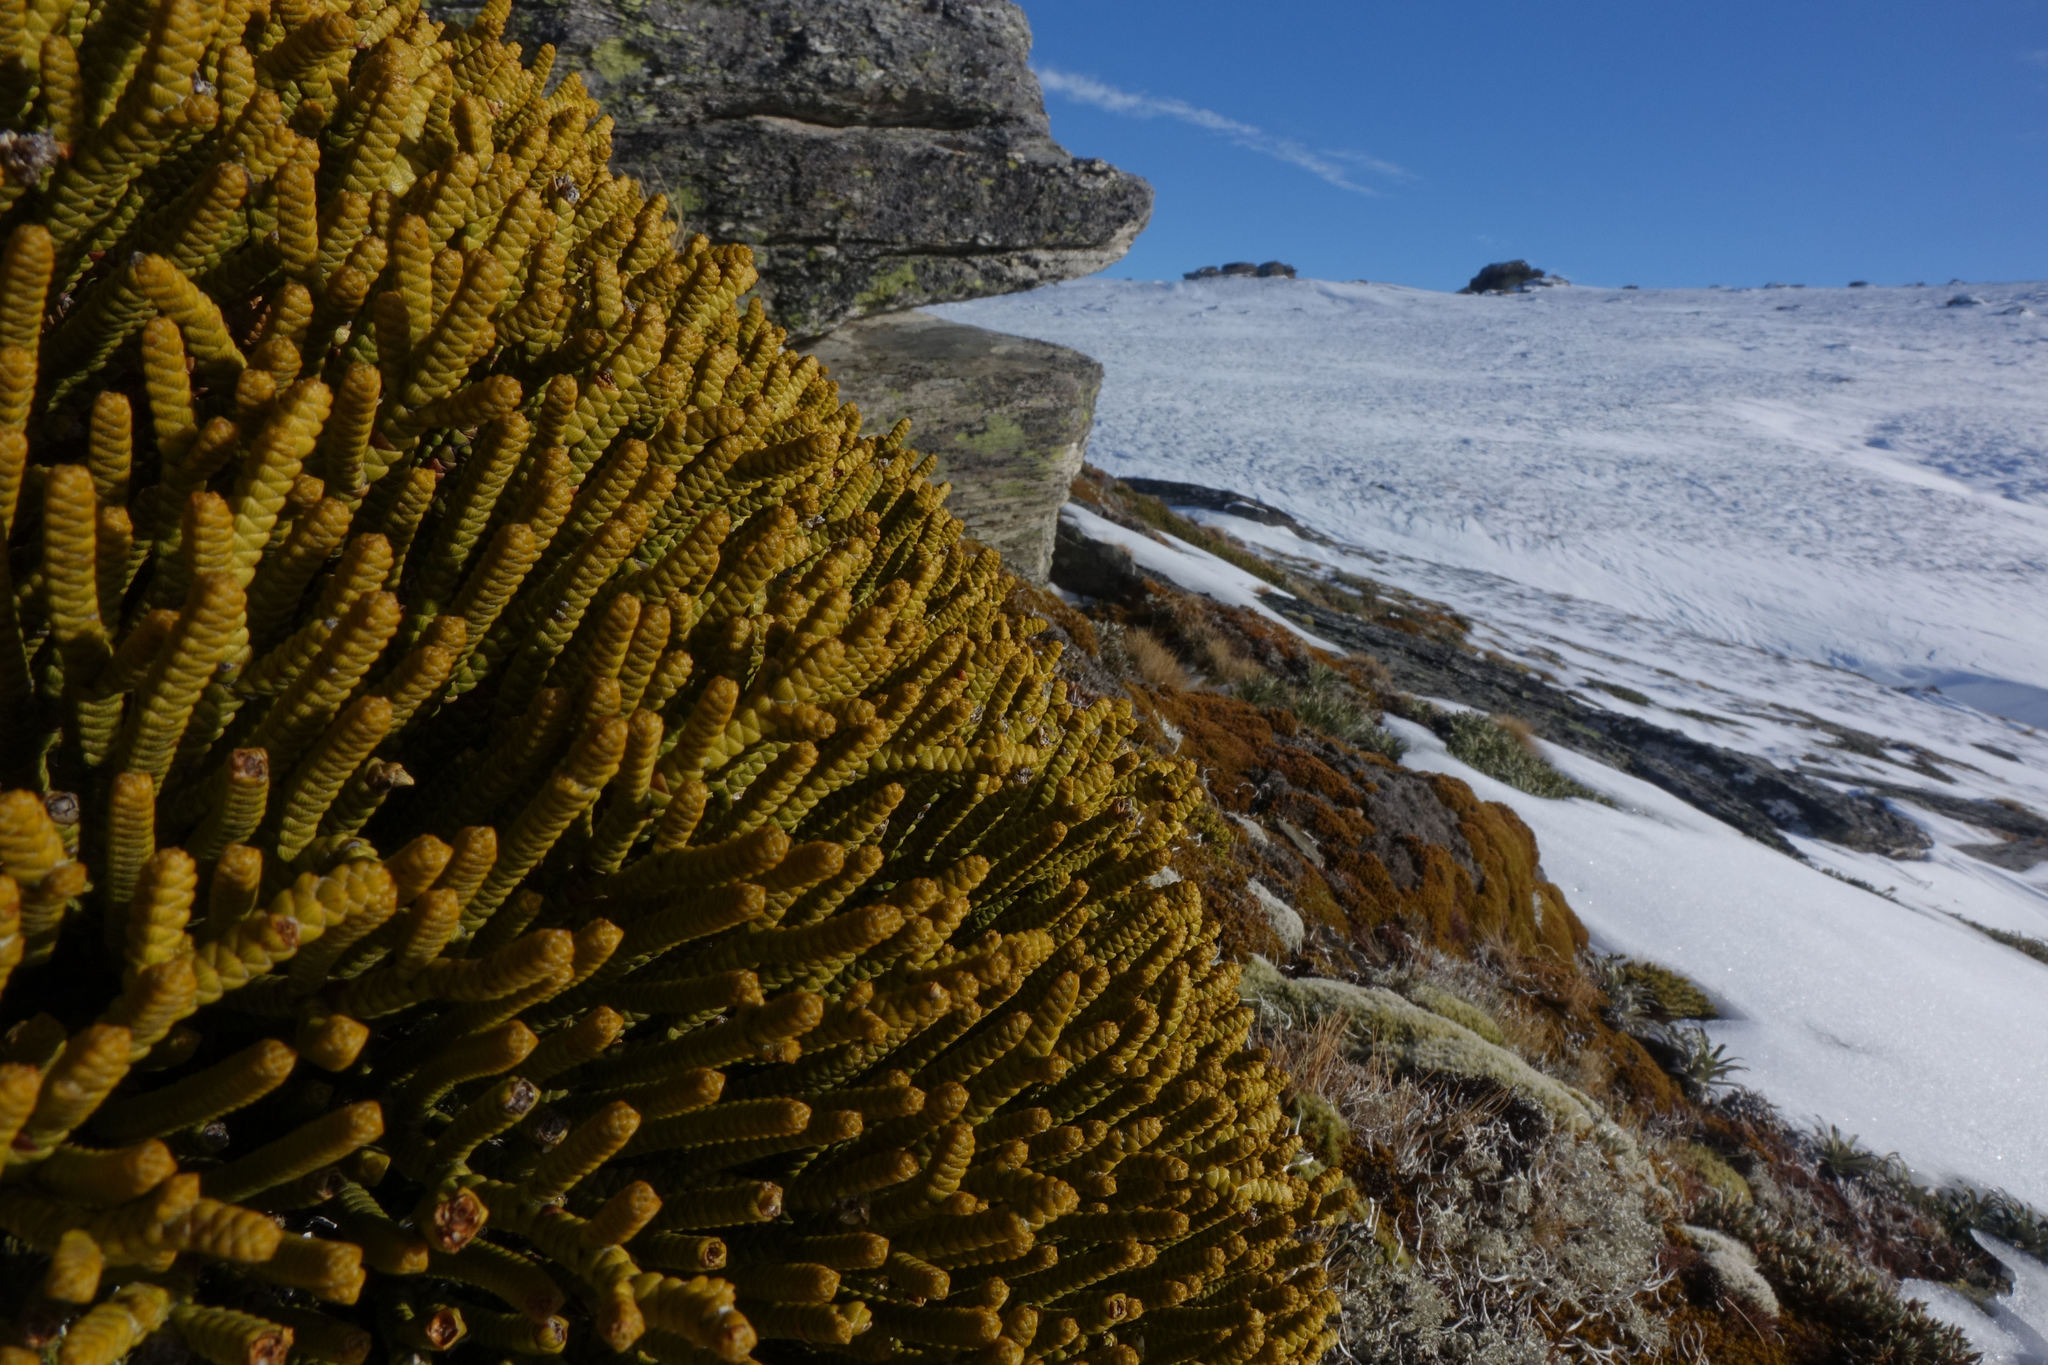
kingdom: Plantae
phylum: Tracheophyta
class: Magnoliopsida
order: Lamiales
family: Plantaginaceae
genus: Veronica
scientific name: Veronica poppelwellii
